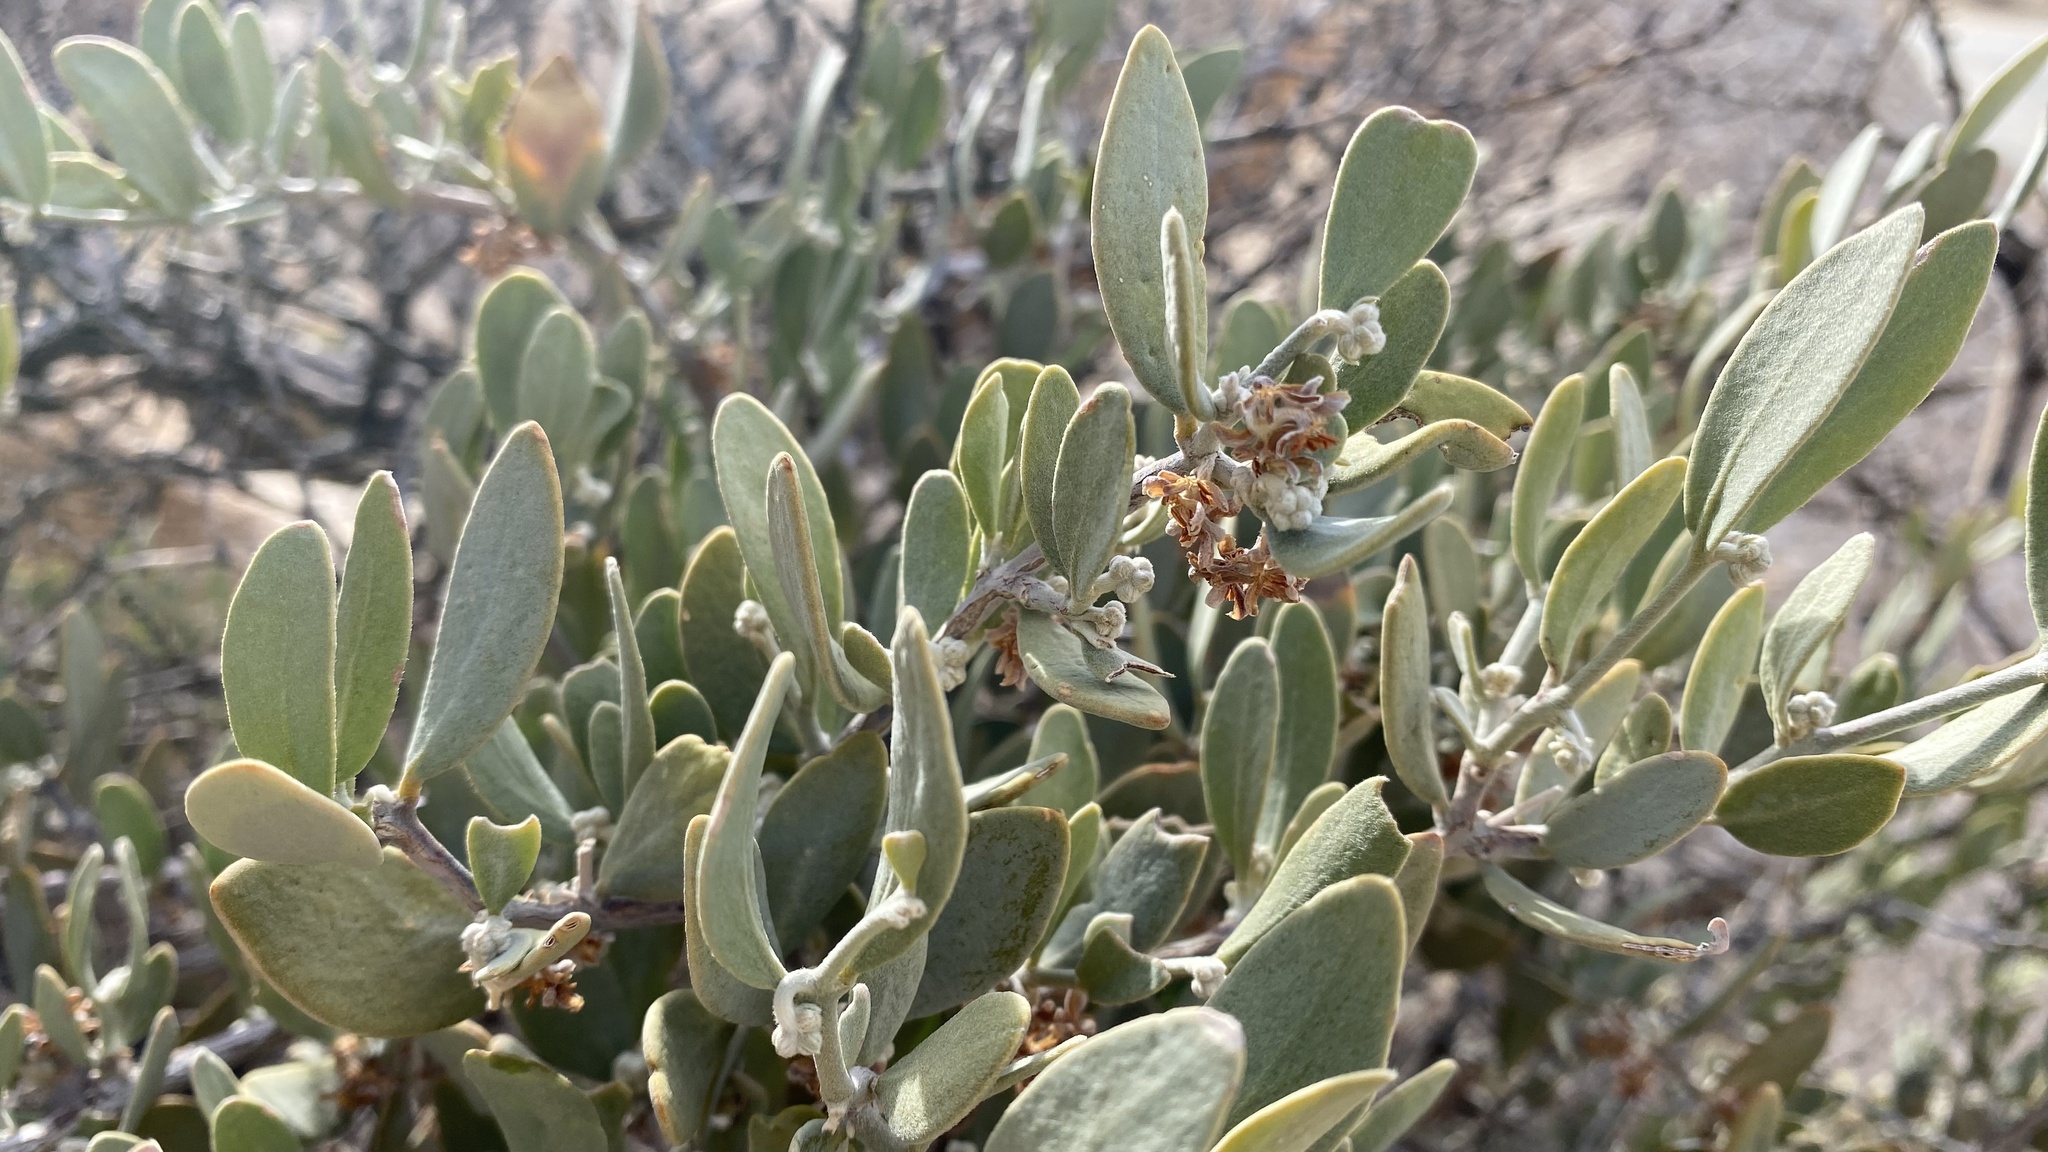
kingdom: Plantae
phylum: Tracheophyta
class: Magnoliopsida
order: Caryophyllales
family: Simmondsiaceae
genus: Simmondsia
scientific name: Simmondsia chinensis
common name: Jojoba
